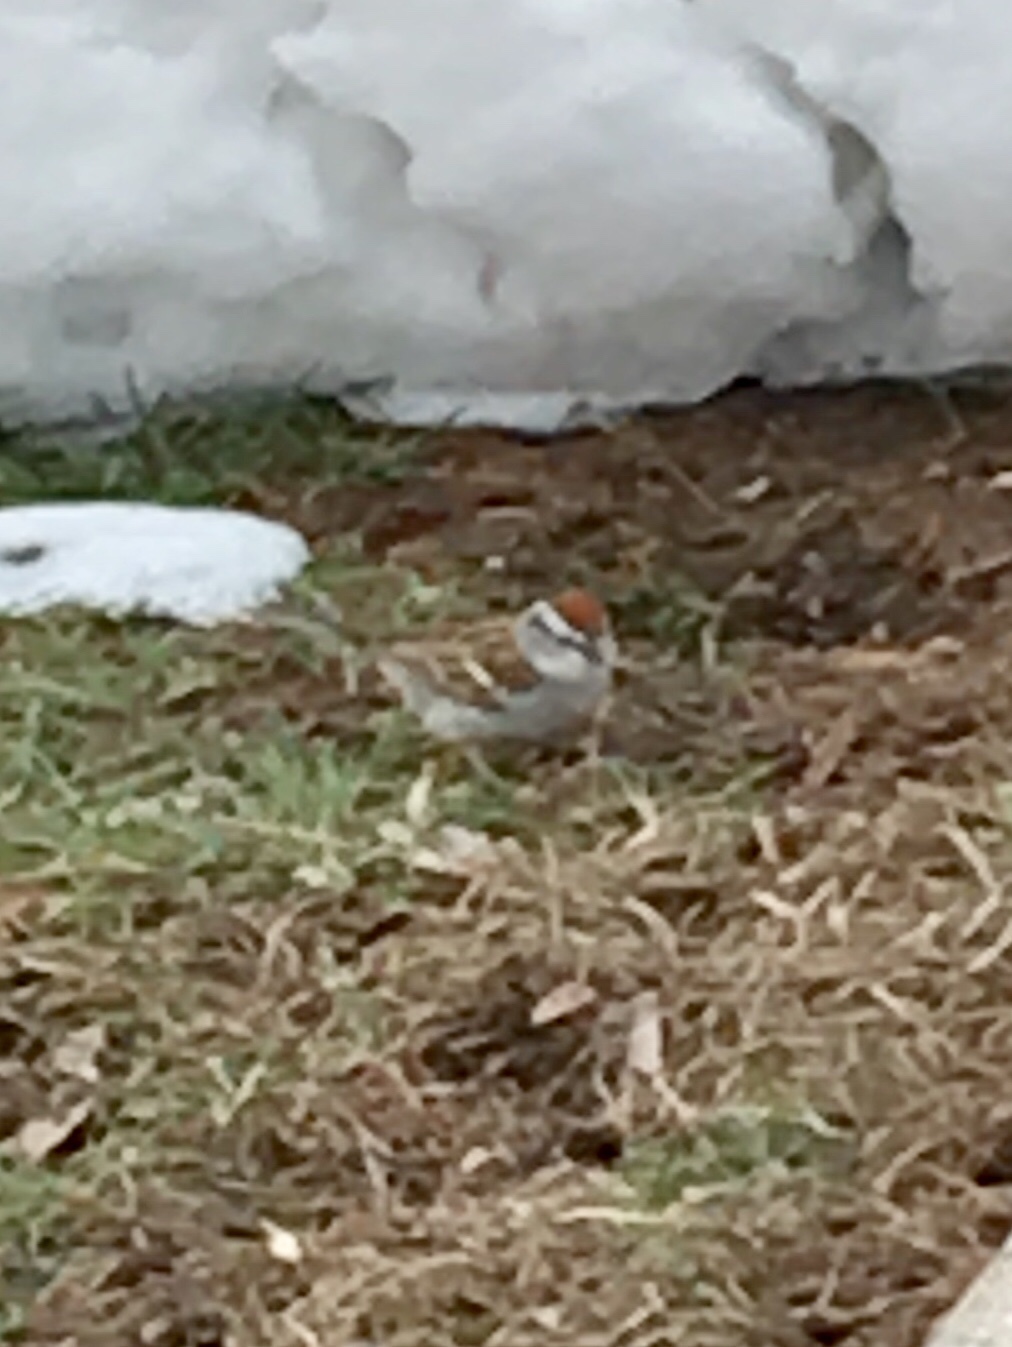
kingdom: Animalia
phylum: Chordata
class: Aves
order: Passeriformes
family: Passerellidae
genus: Spizella
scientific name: Spizella passerina
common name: Chipping sparrow
